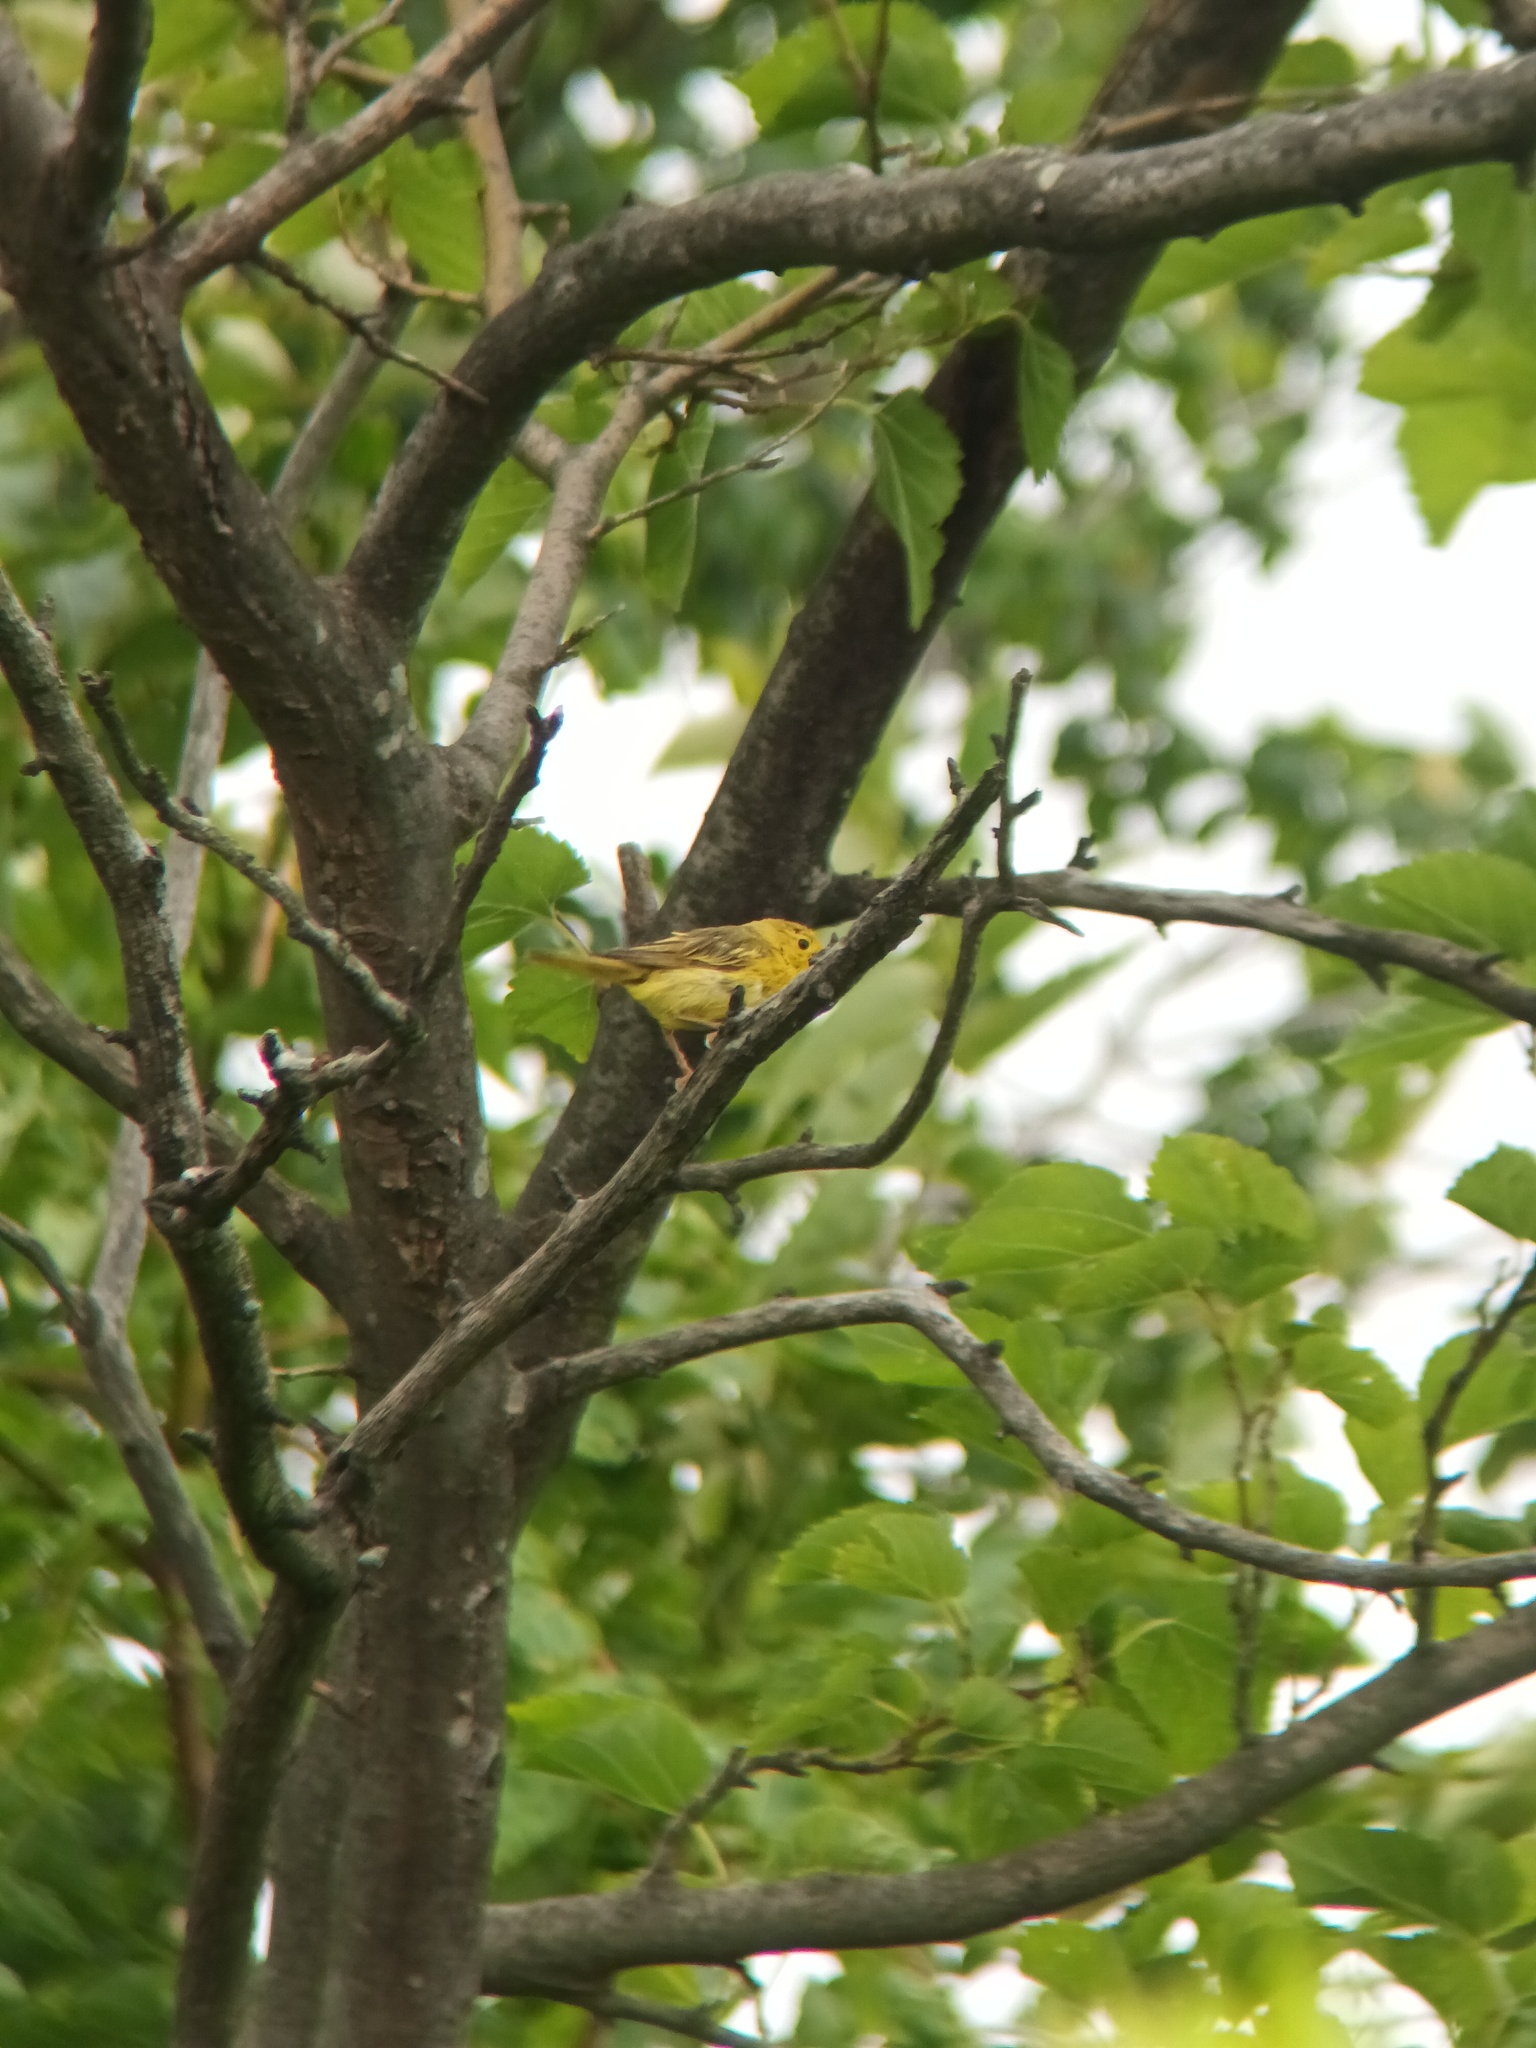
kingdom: Animalia
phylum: Chordata
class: Aves
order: Passeriformes
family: Parulidae
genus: Setophaga
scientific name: Setophaga petechia
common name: Yellow warbler
